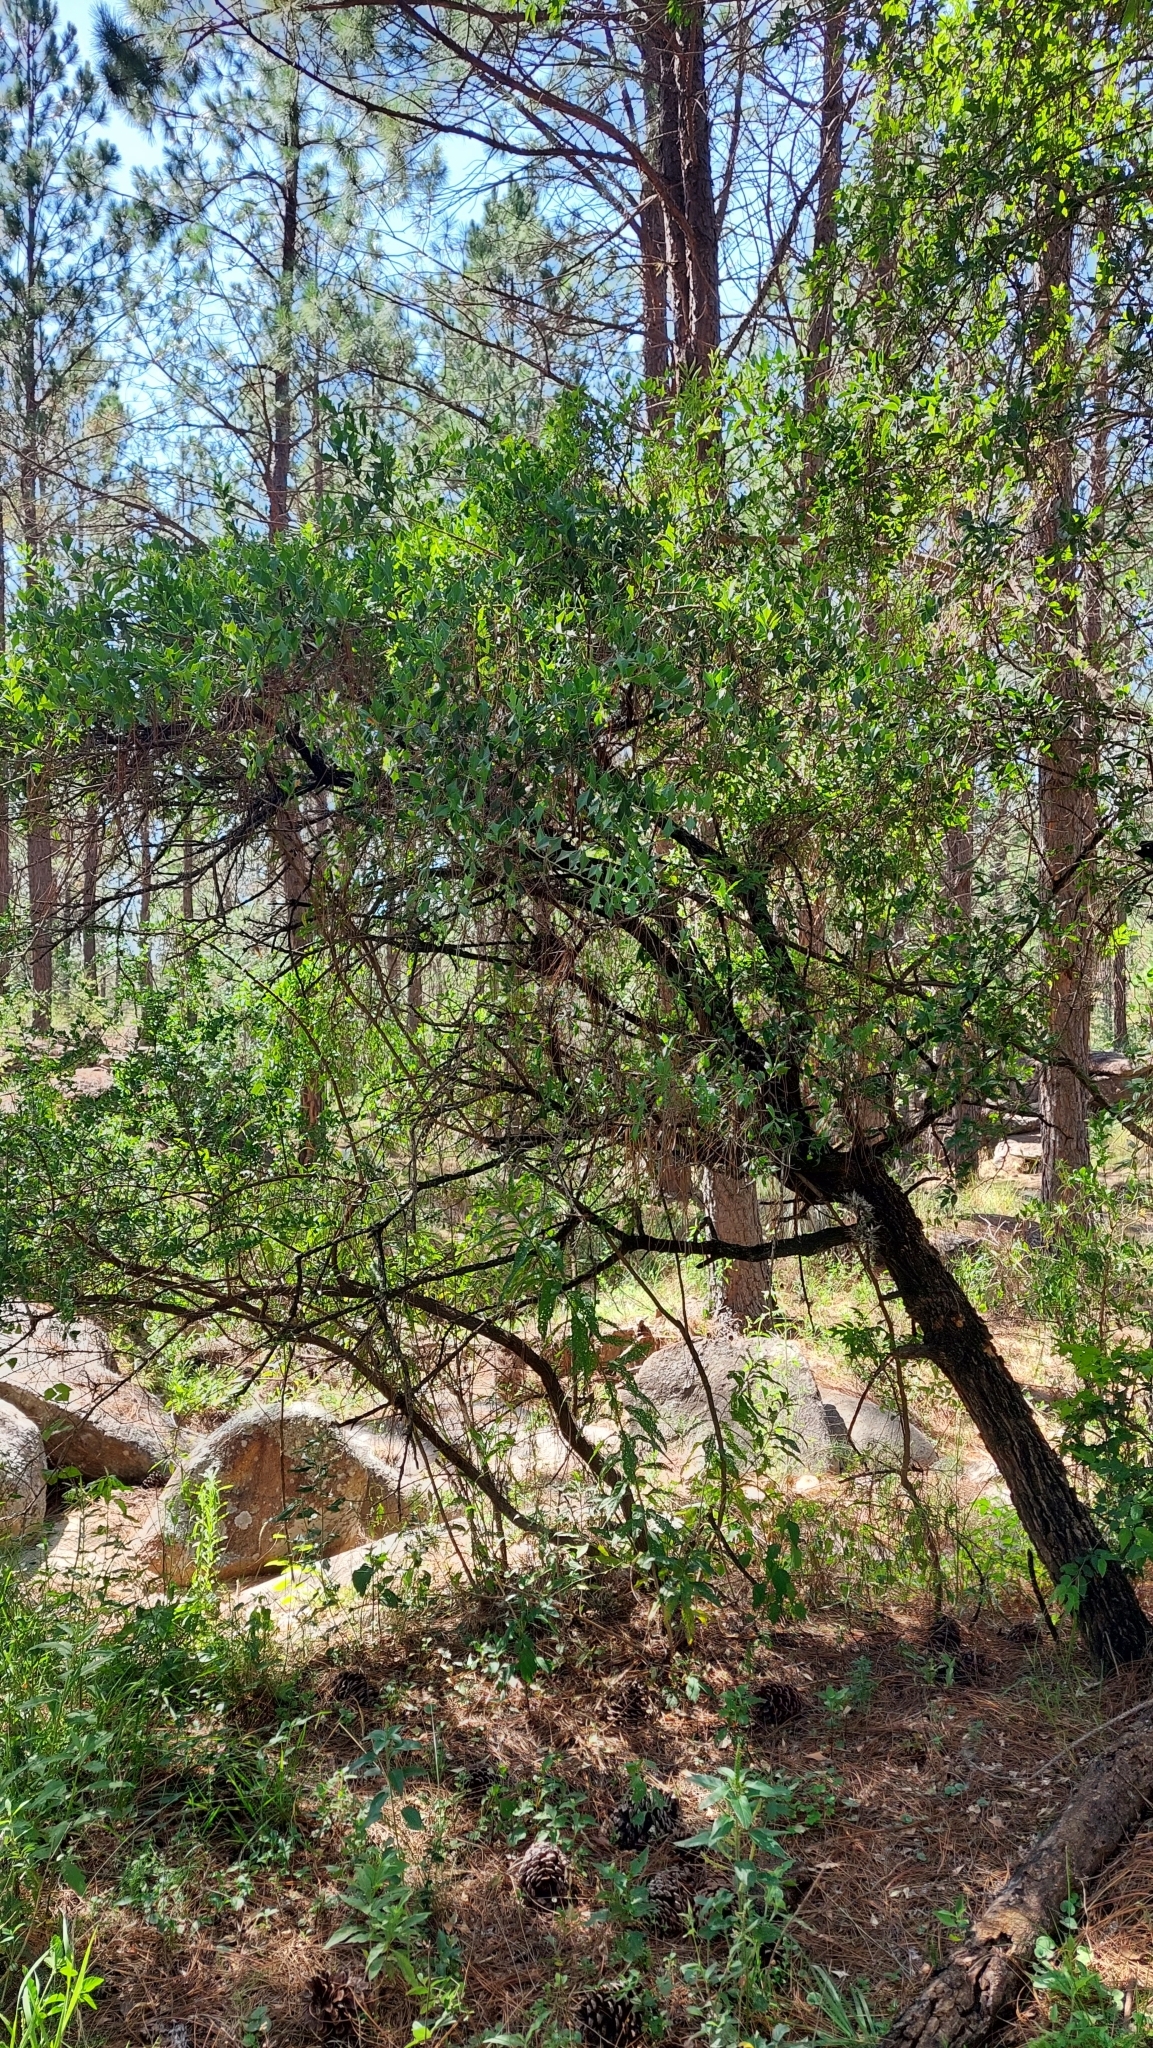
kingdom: Plantae
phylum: Tracheophyta
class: Magnoliopsida
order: Santalales
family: Cervantesiaceae
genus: Jodina
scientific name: Jodina rhombifolia
